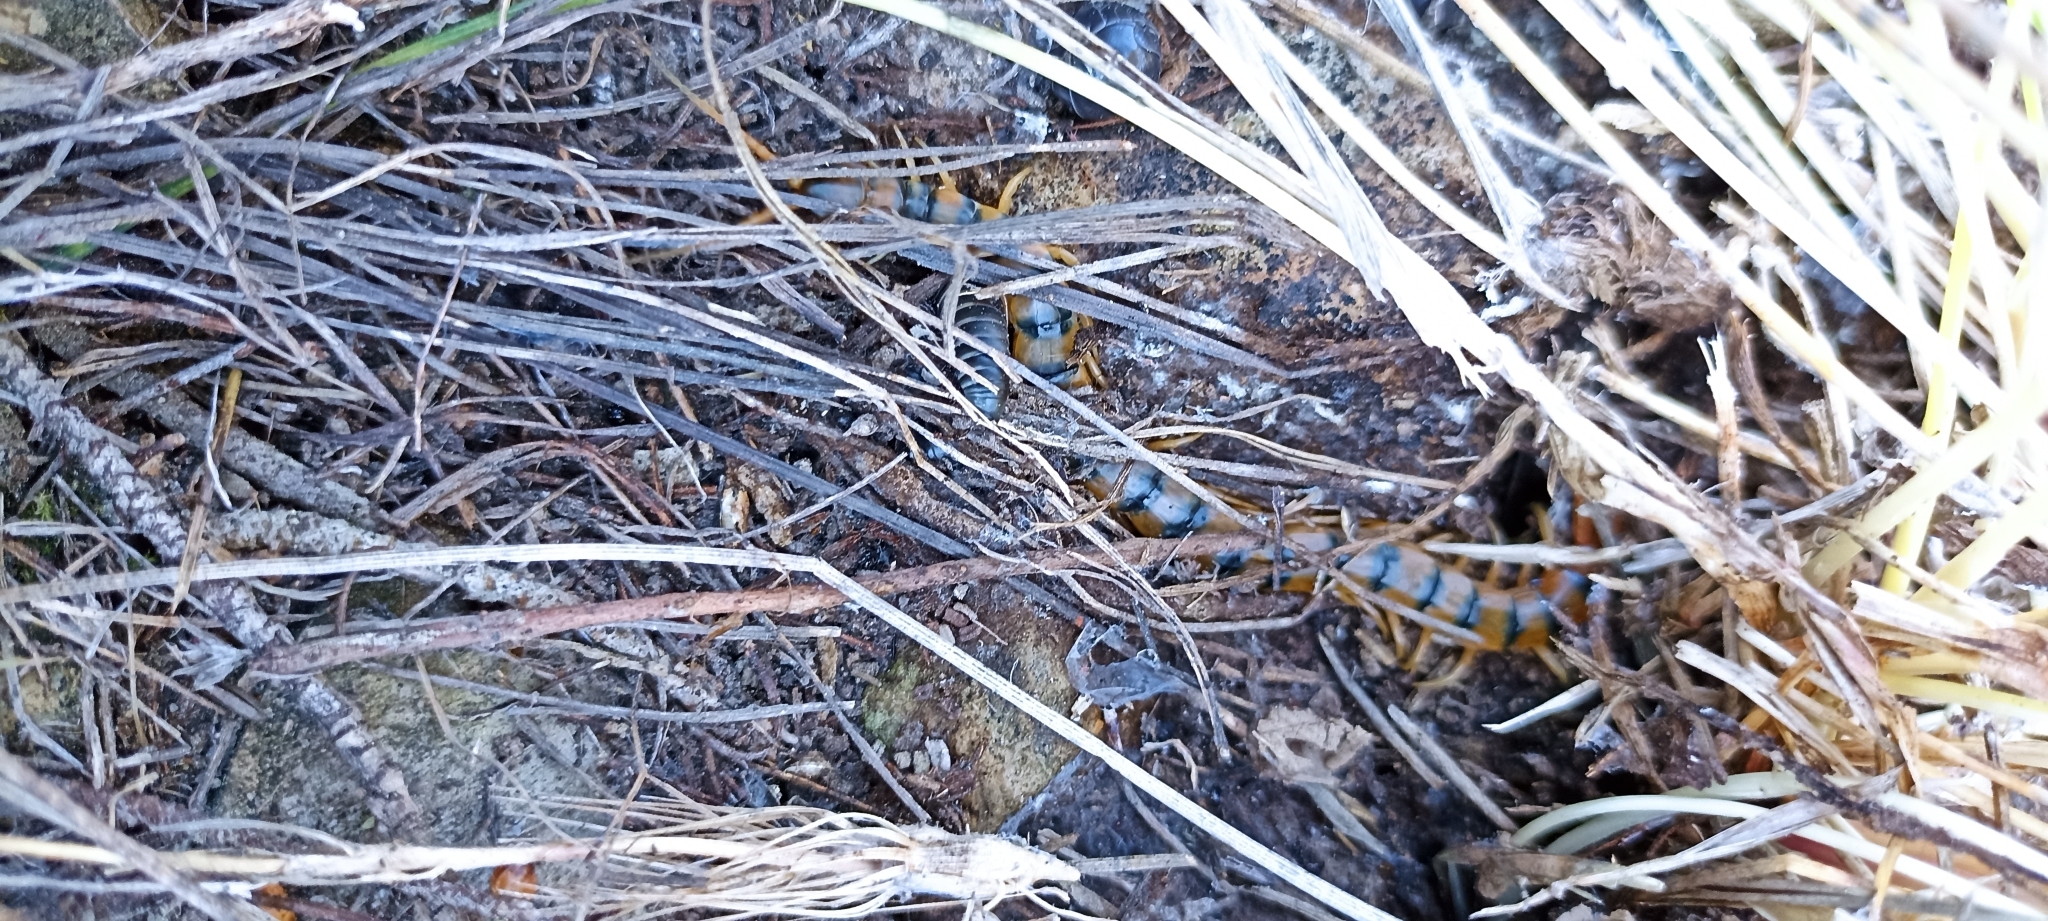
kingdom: Animalia
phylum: Arthropoda
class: Chilopoda
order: Scolopendromorpha
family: Scolopendridae
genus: Scolopendra
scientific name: Scolopendra cingulata
